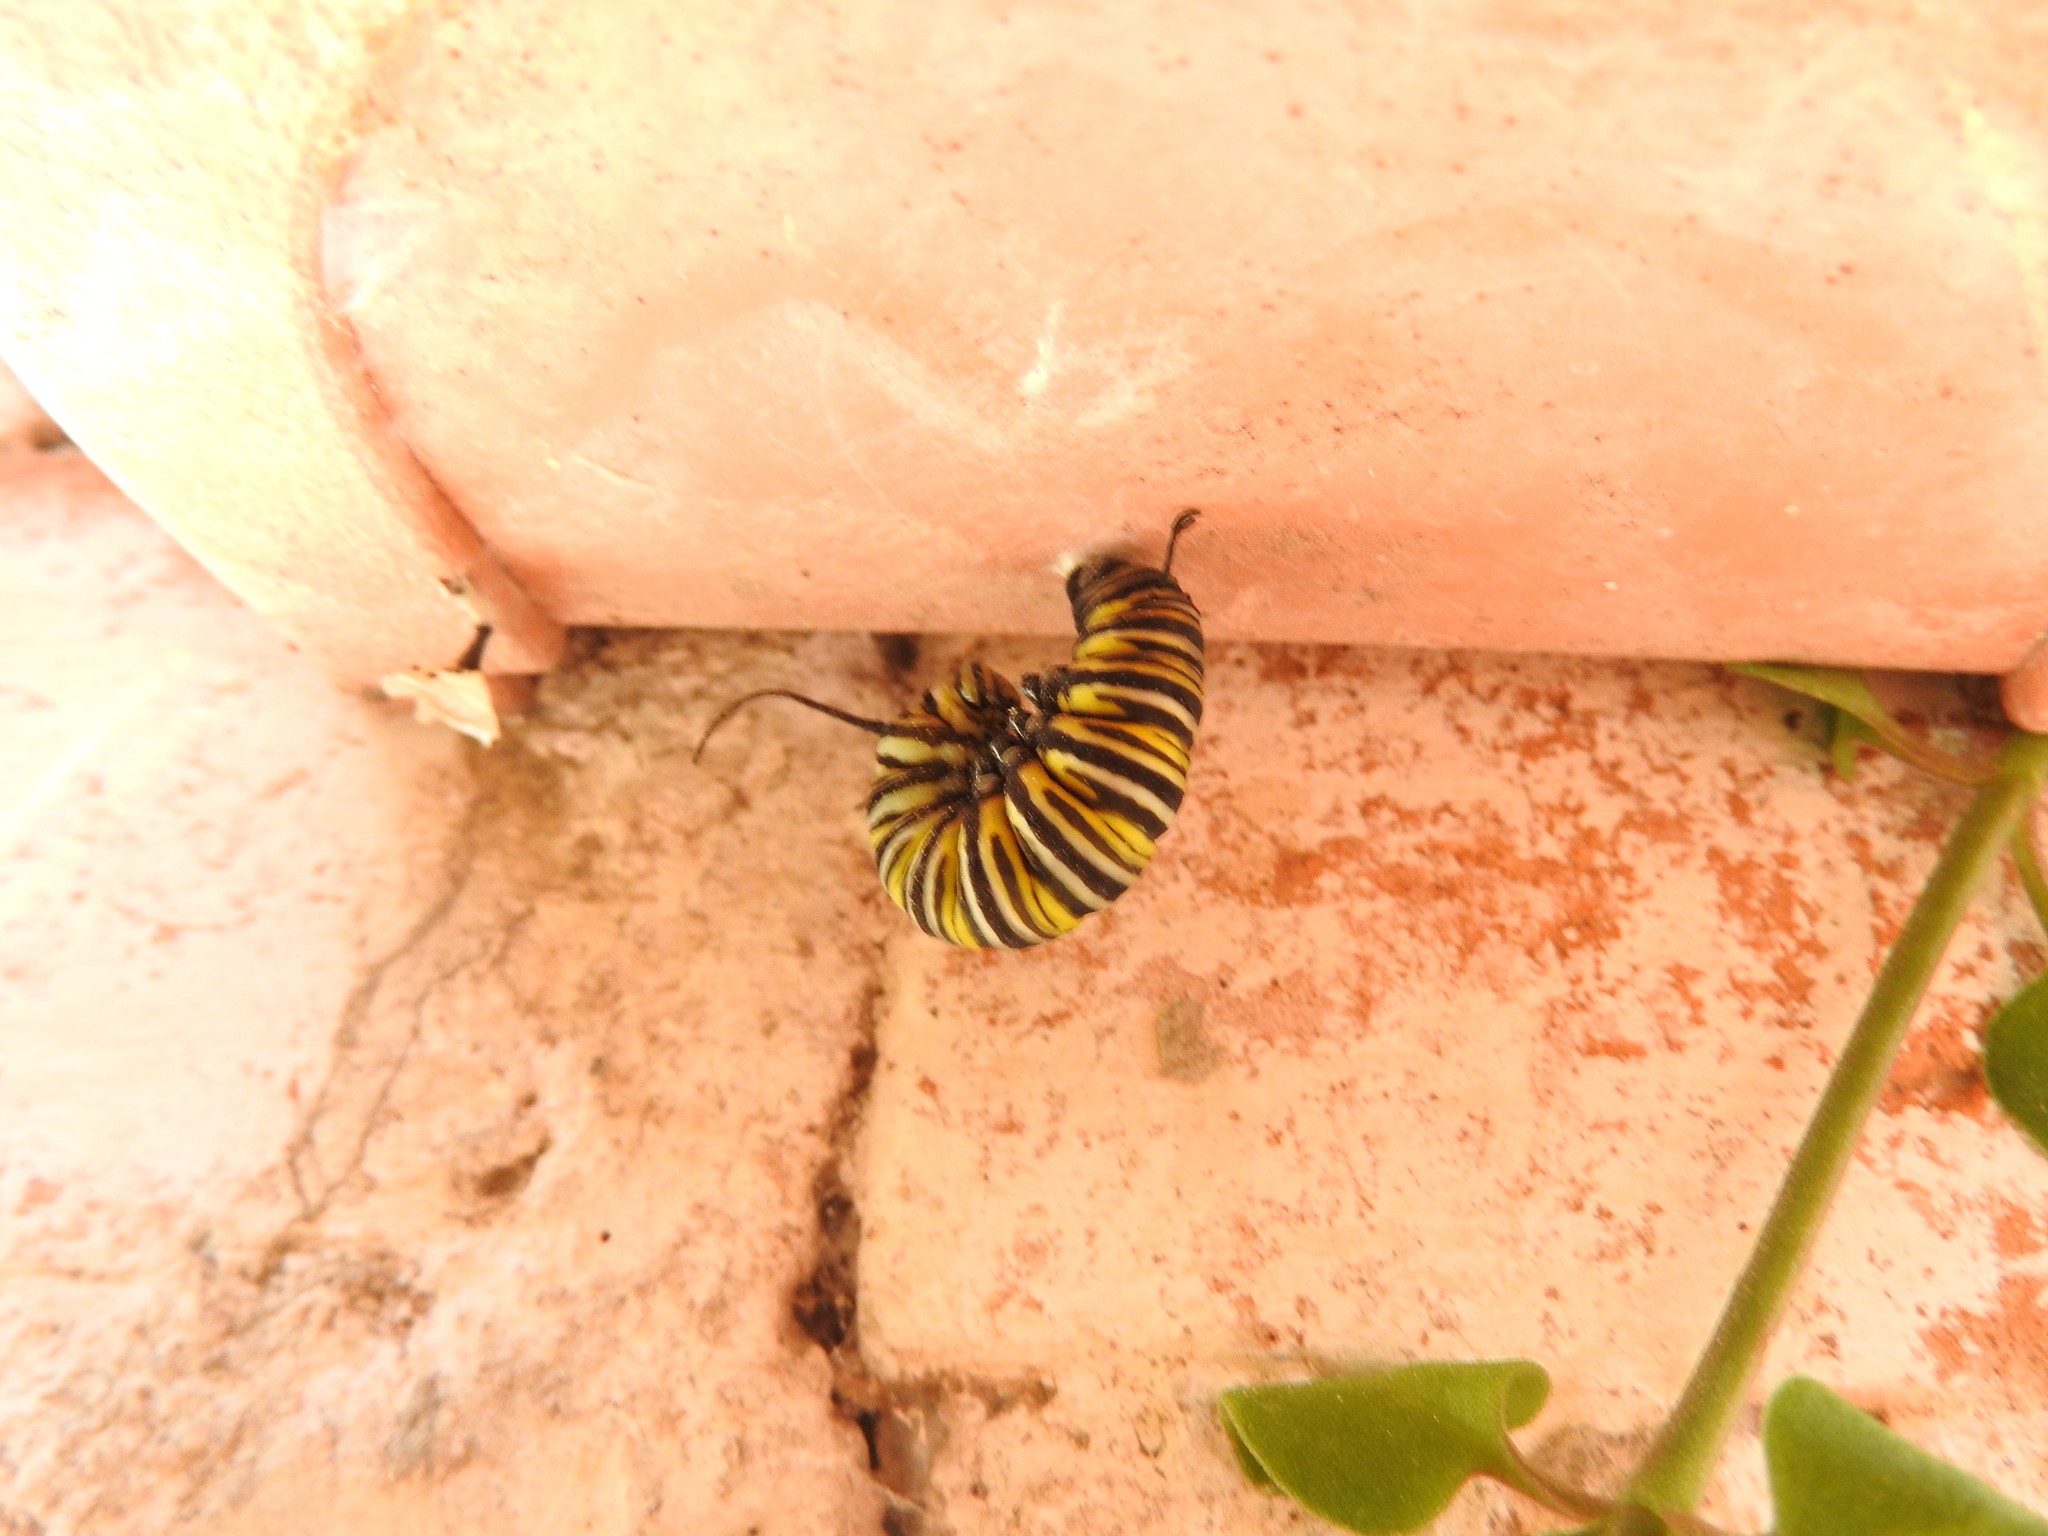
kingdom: Animalia
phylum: Arthropoda
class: Insecta
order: Lepidoptera
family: Nymphalidae
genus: Danaus
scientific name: Danaus plexippus
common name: Monarch
